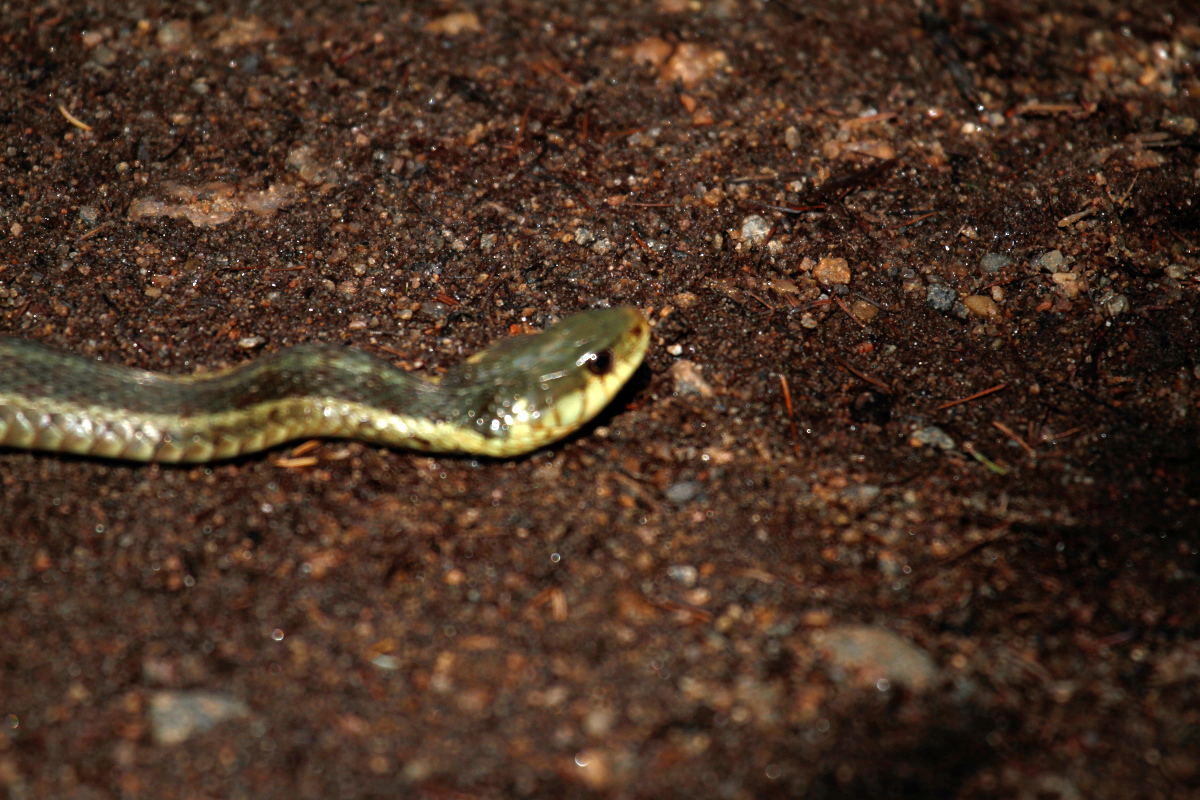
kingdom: Animalia
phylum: Chordata
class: Squamata
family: Colubridae
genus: Thamnophis
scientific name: Thamnophis sirtalis
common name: Common garter snake
